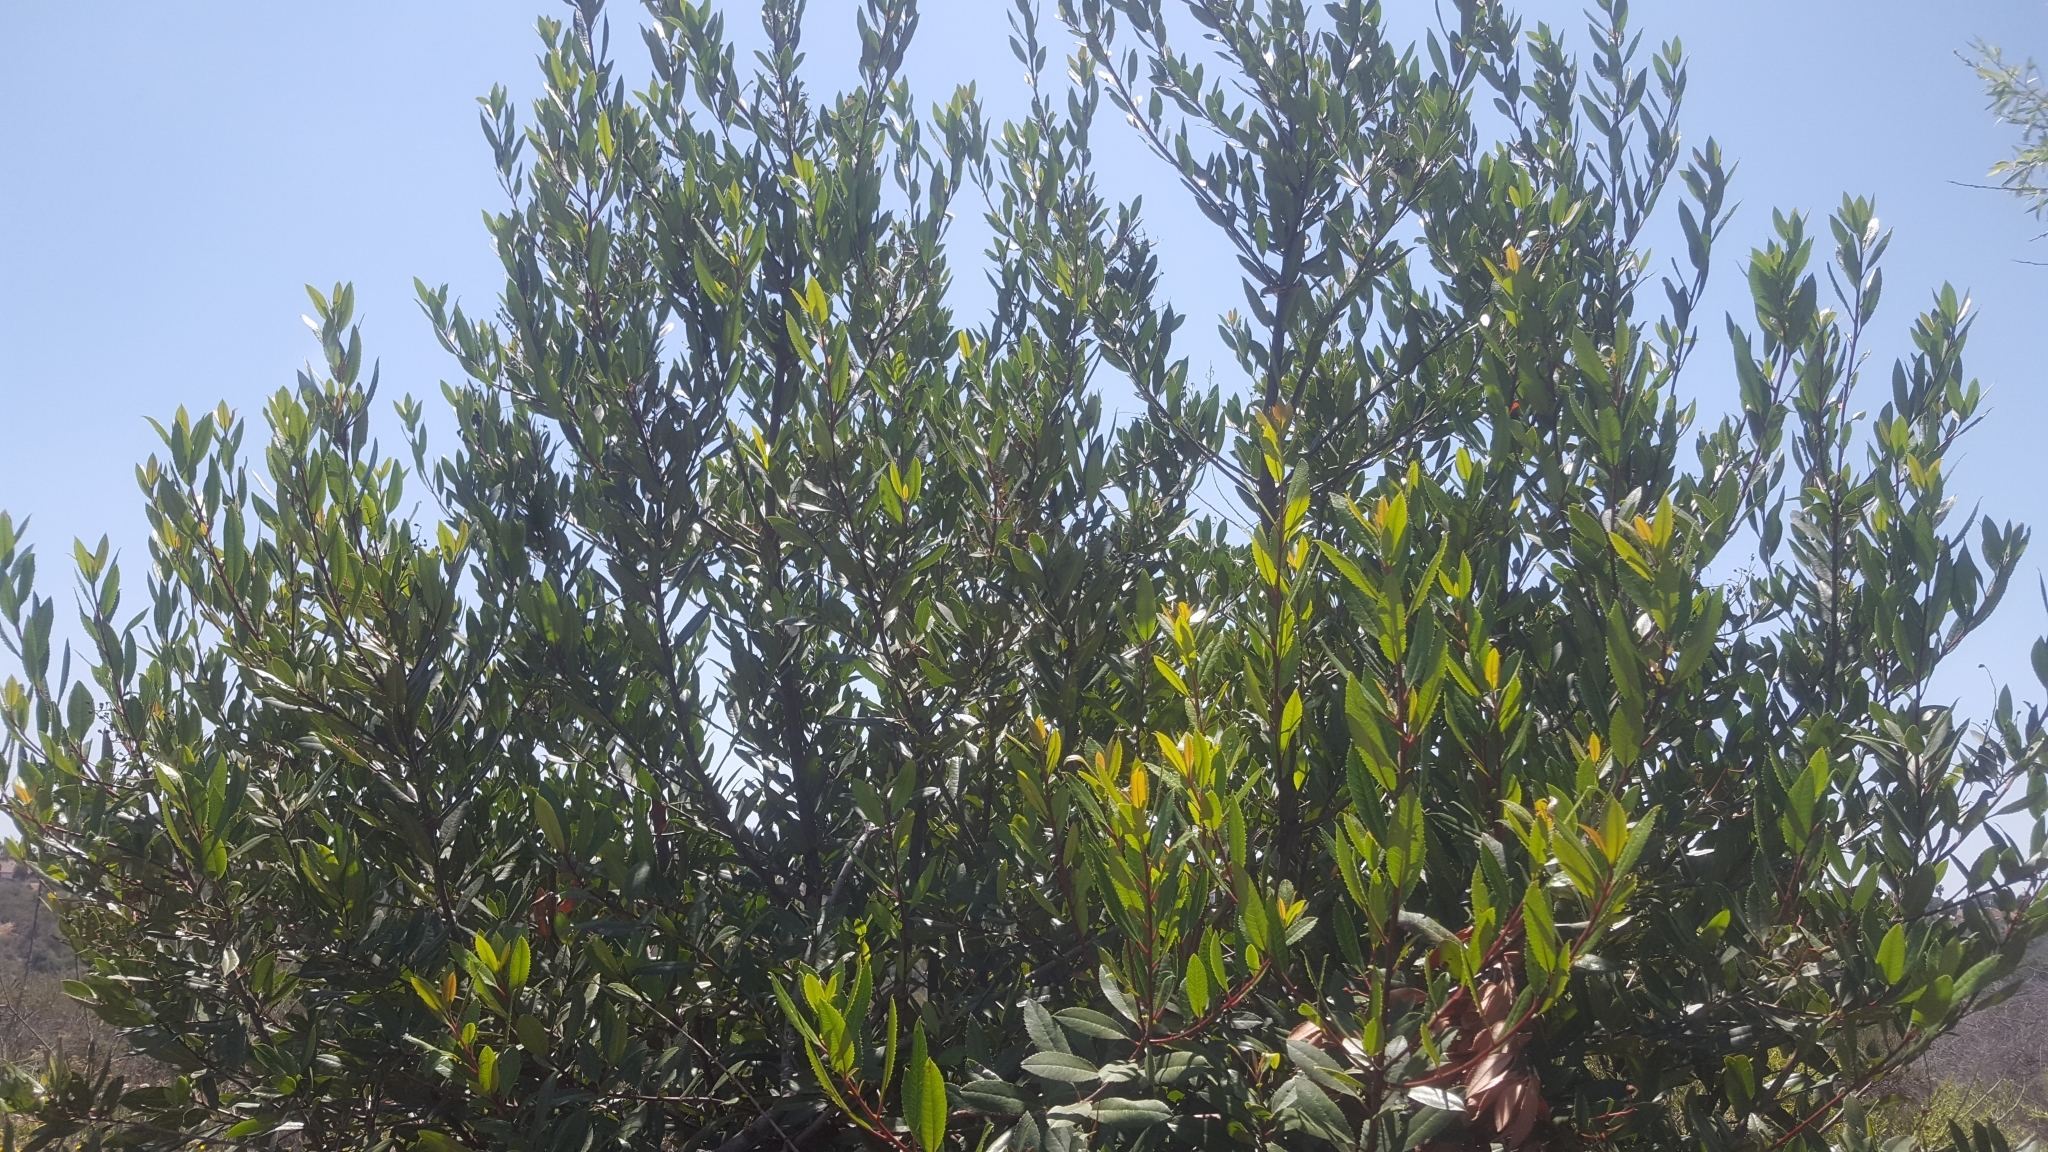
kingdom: Plantae
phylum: Tracheophyta
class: Magnoliopsida
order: Rosales
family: Rosaceae
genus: Heteromeles
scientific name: Heteromeles arbutifolia
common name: California-holly
